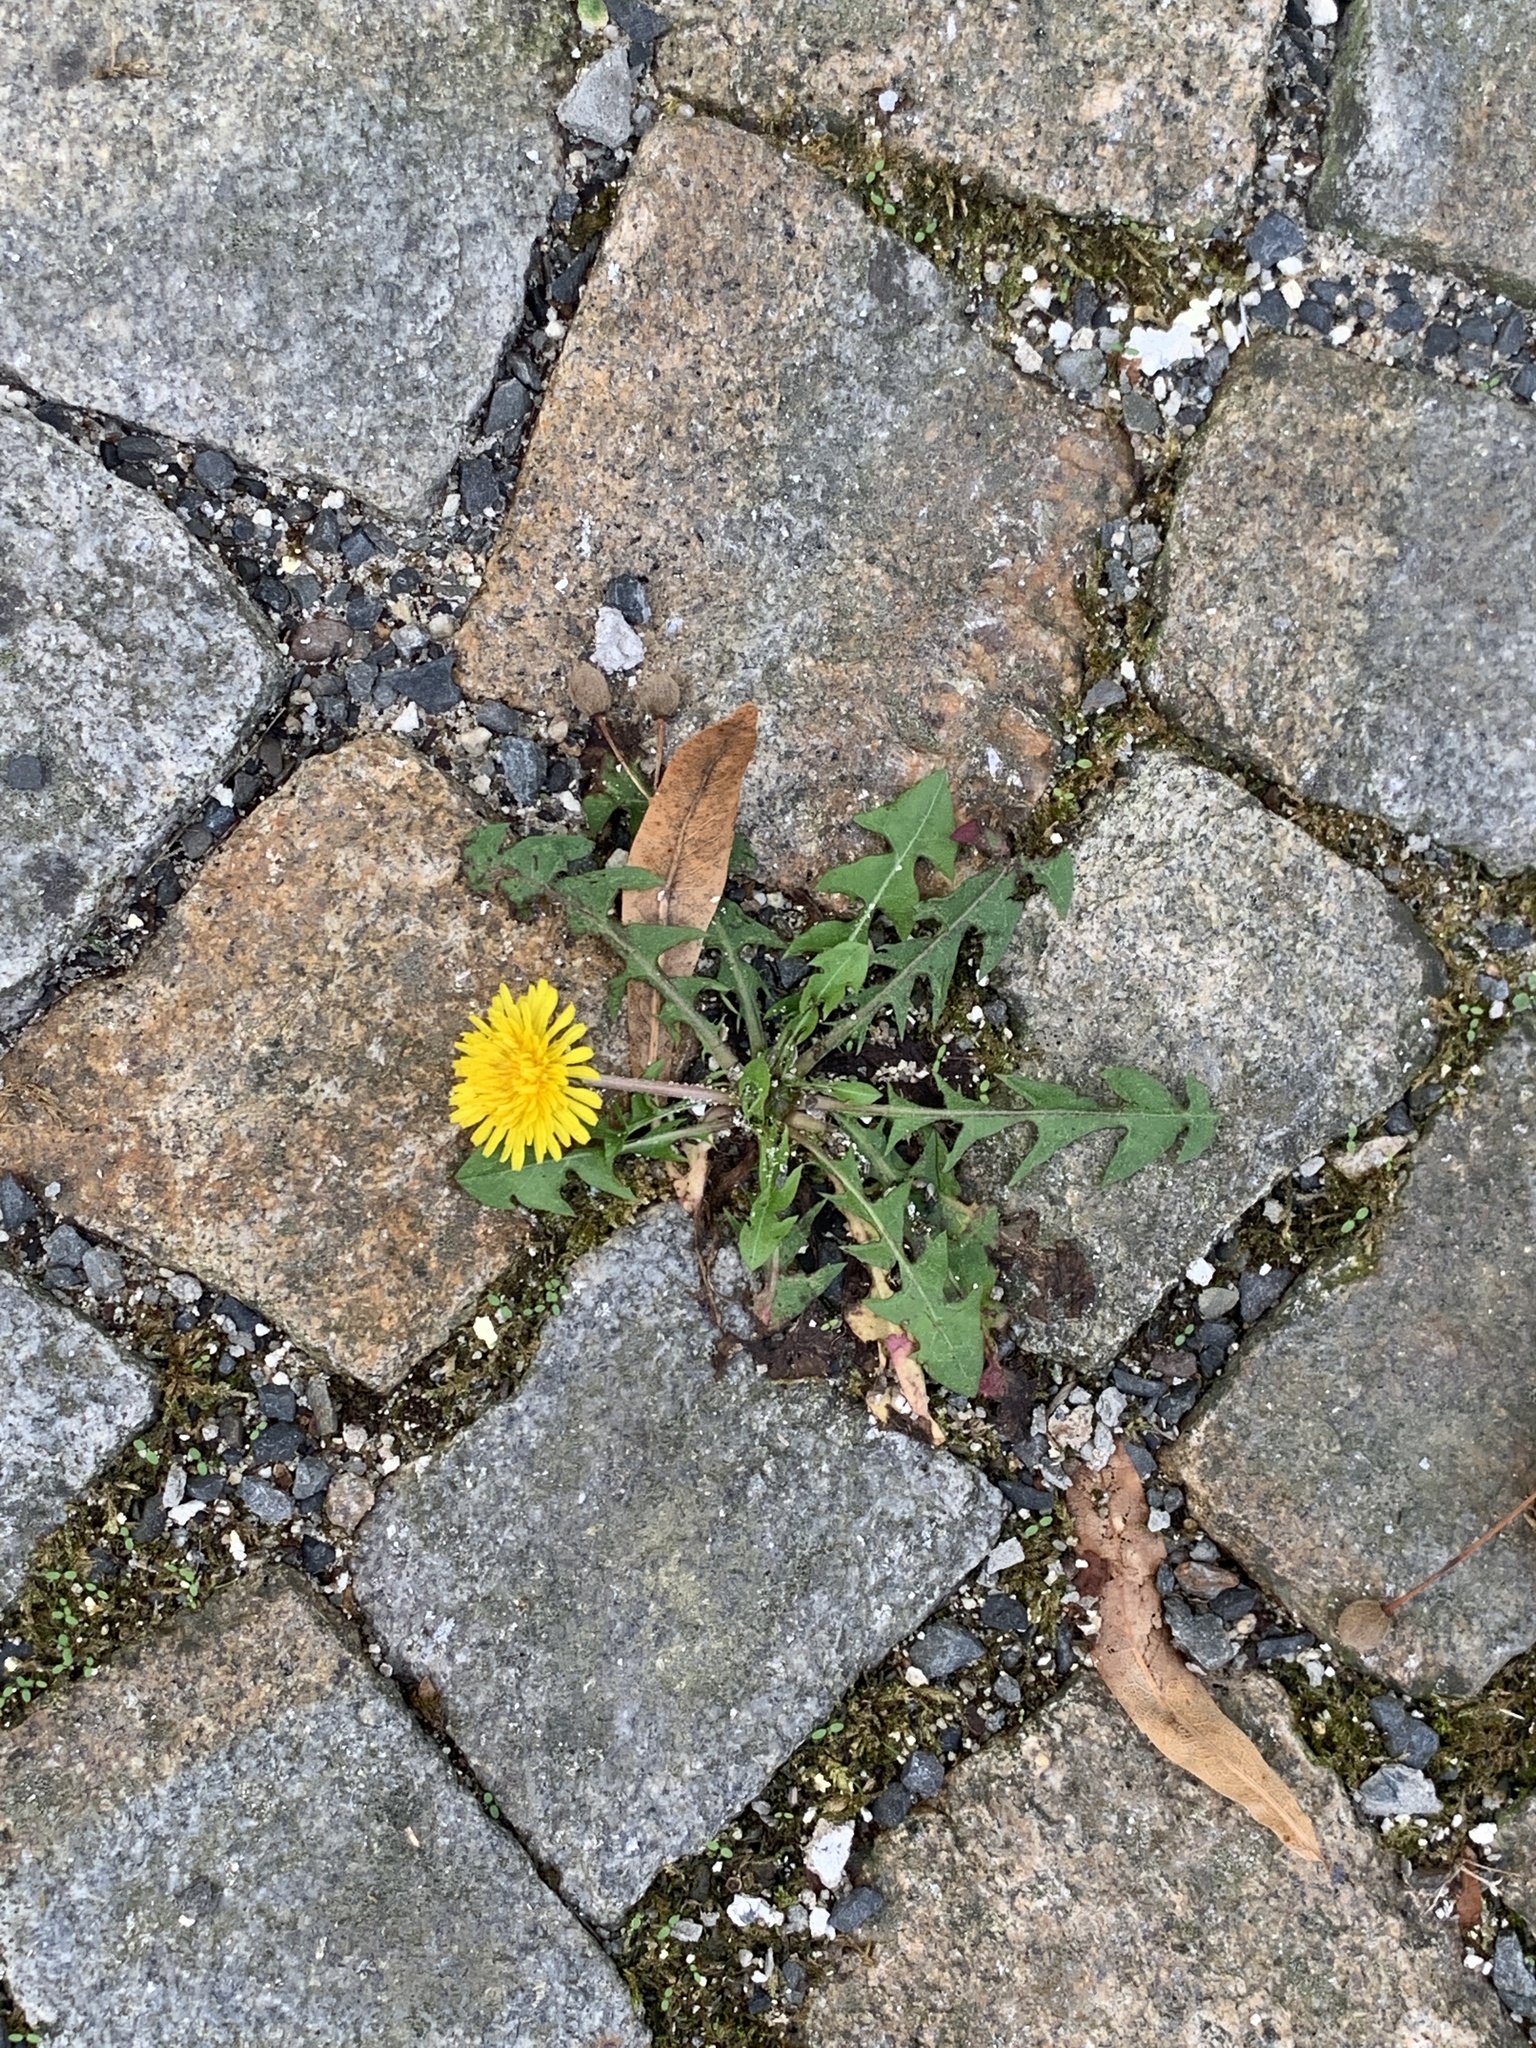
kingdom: Plantae
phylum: Tracheophyta
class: Magnoliopsida
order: Asterales
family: Asteraceae
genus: Taraxacum
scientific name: Taraxacum officinale
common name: Common dandelion
